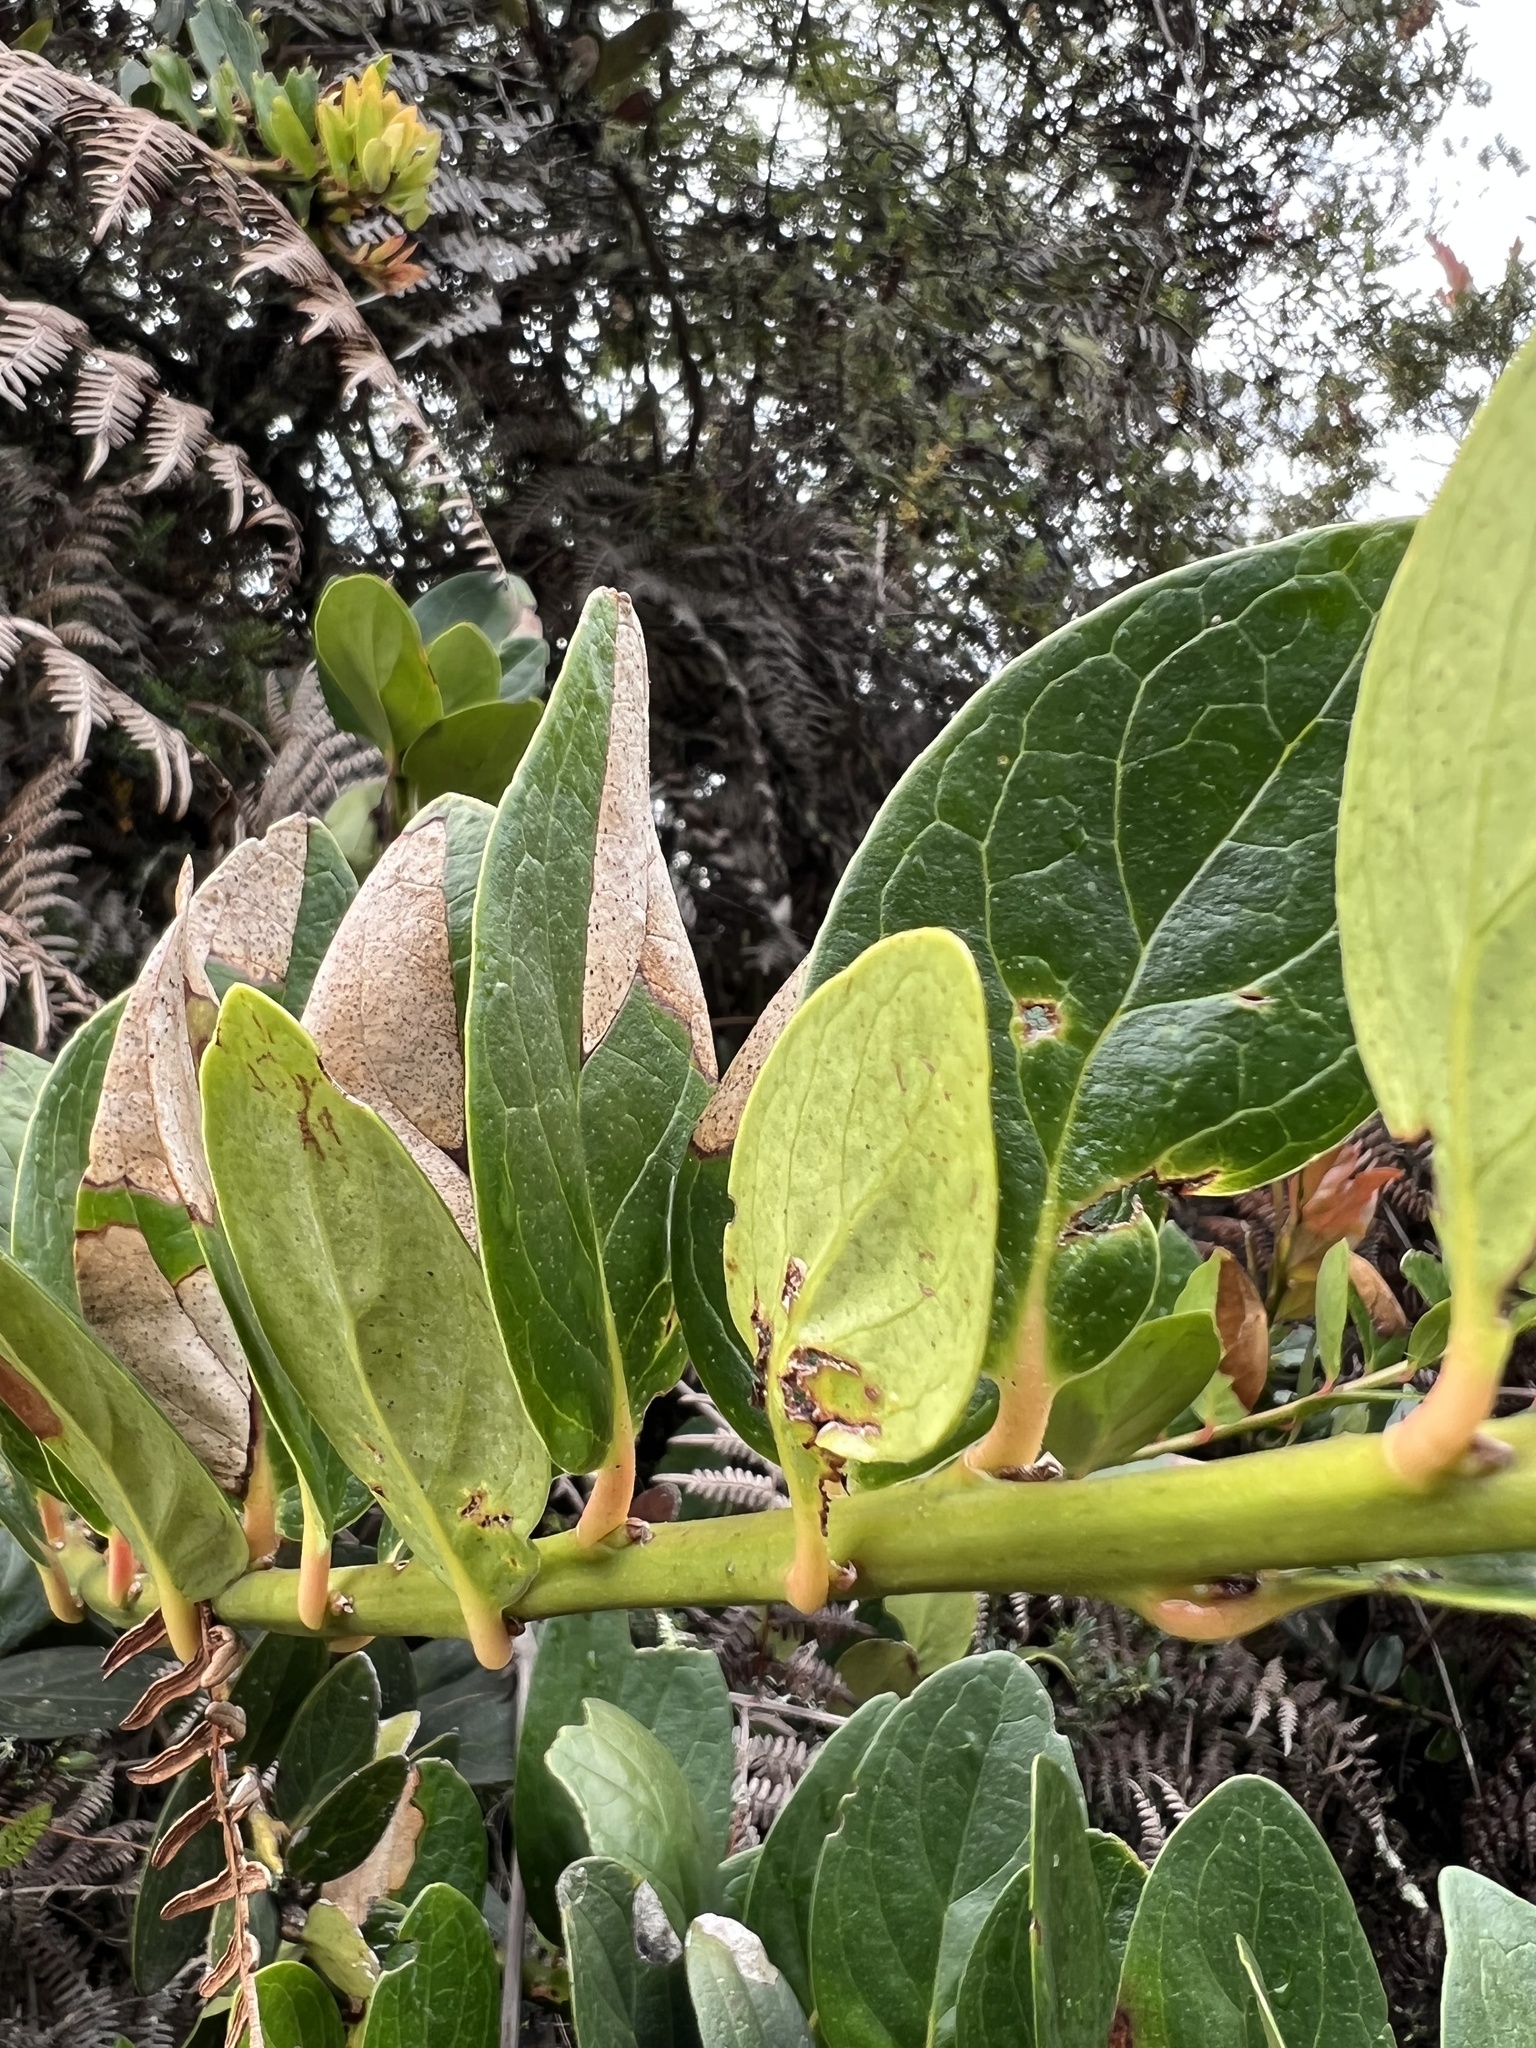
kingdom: Plantae
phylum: Tracheophyta
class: Magnoliopsida
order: Ericales
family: Ericaceae
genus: Macleania
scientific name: Macleania rupestris
